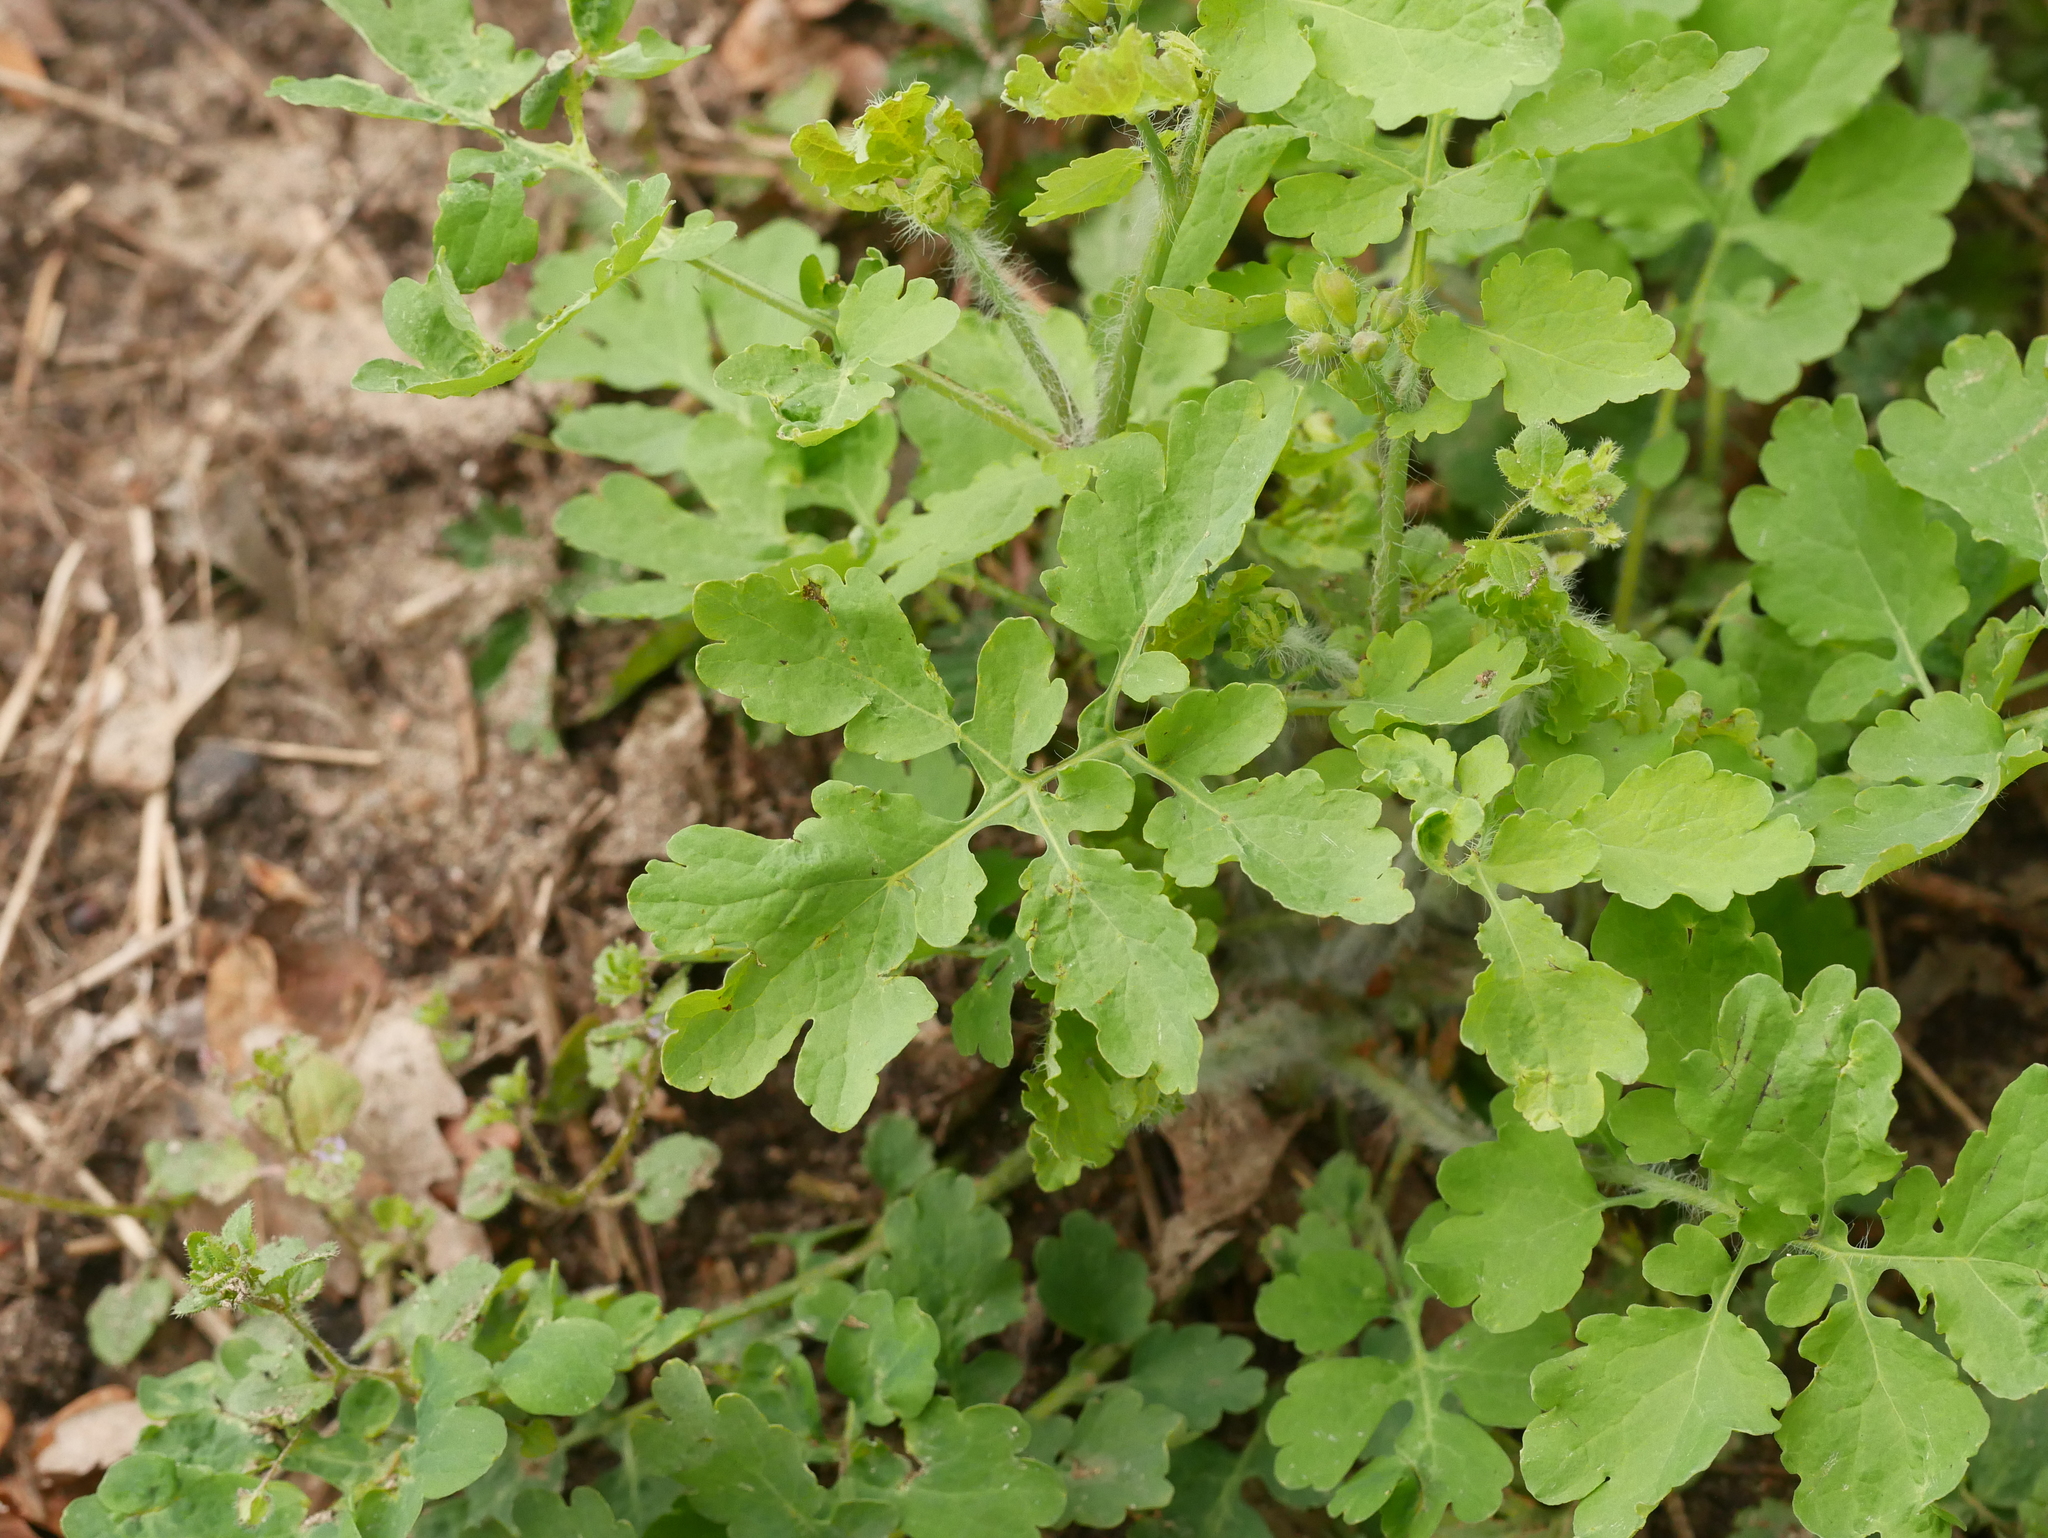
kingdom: Plantae
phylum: Tracheophyta
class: Magnoliopsida
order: Ranunculales
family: Papaveraceae
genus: Chelidonium
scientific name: Chelidonium majus
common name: Greater celandine
